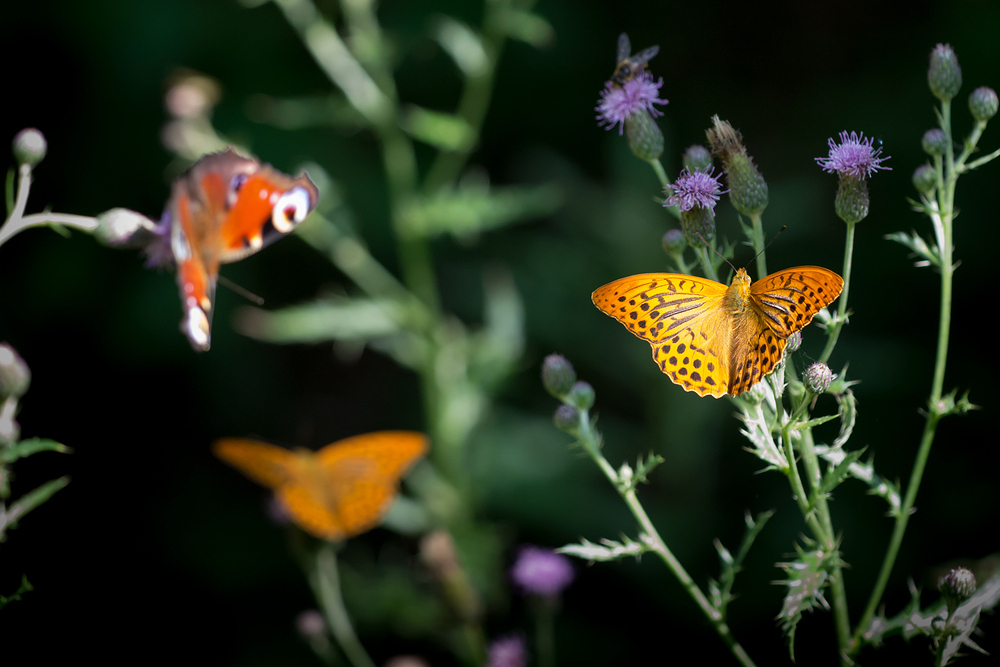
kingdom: Animalia
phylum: Arthropoda
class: Insecta
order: Lepidoptera
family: Nymphalidae
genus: Argynnis
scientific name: Argynnis paphia
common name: Silver-washed fritillary
